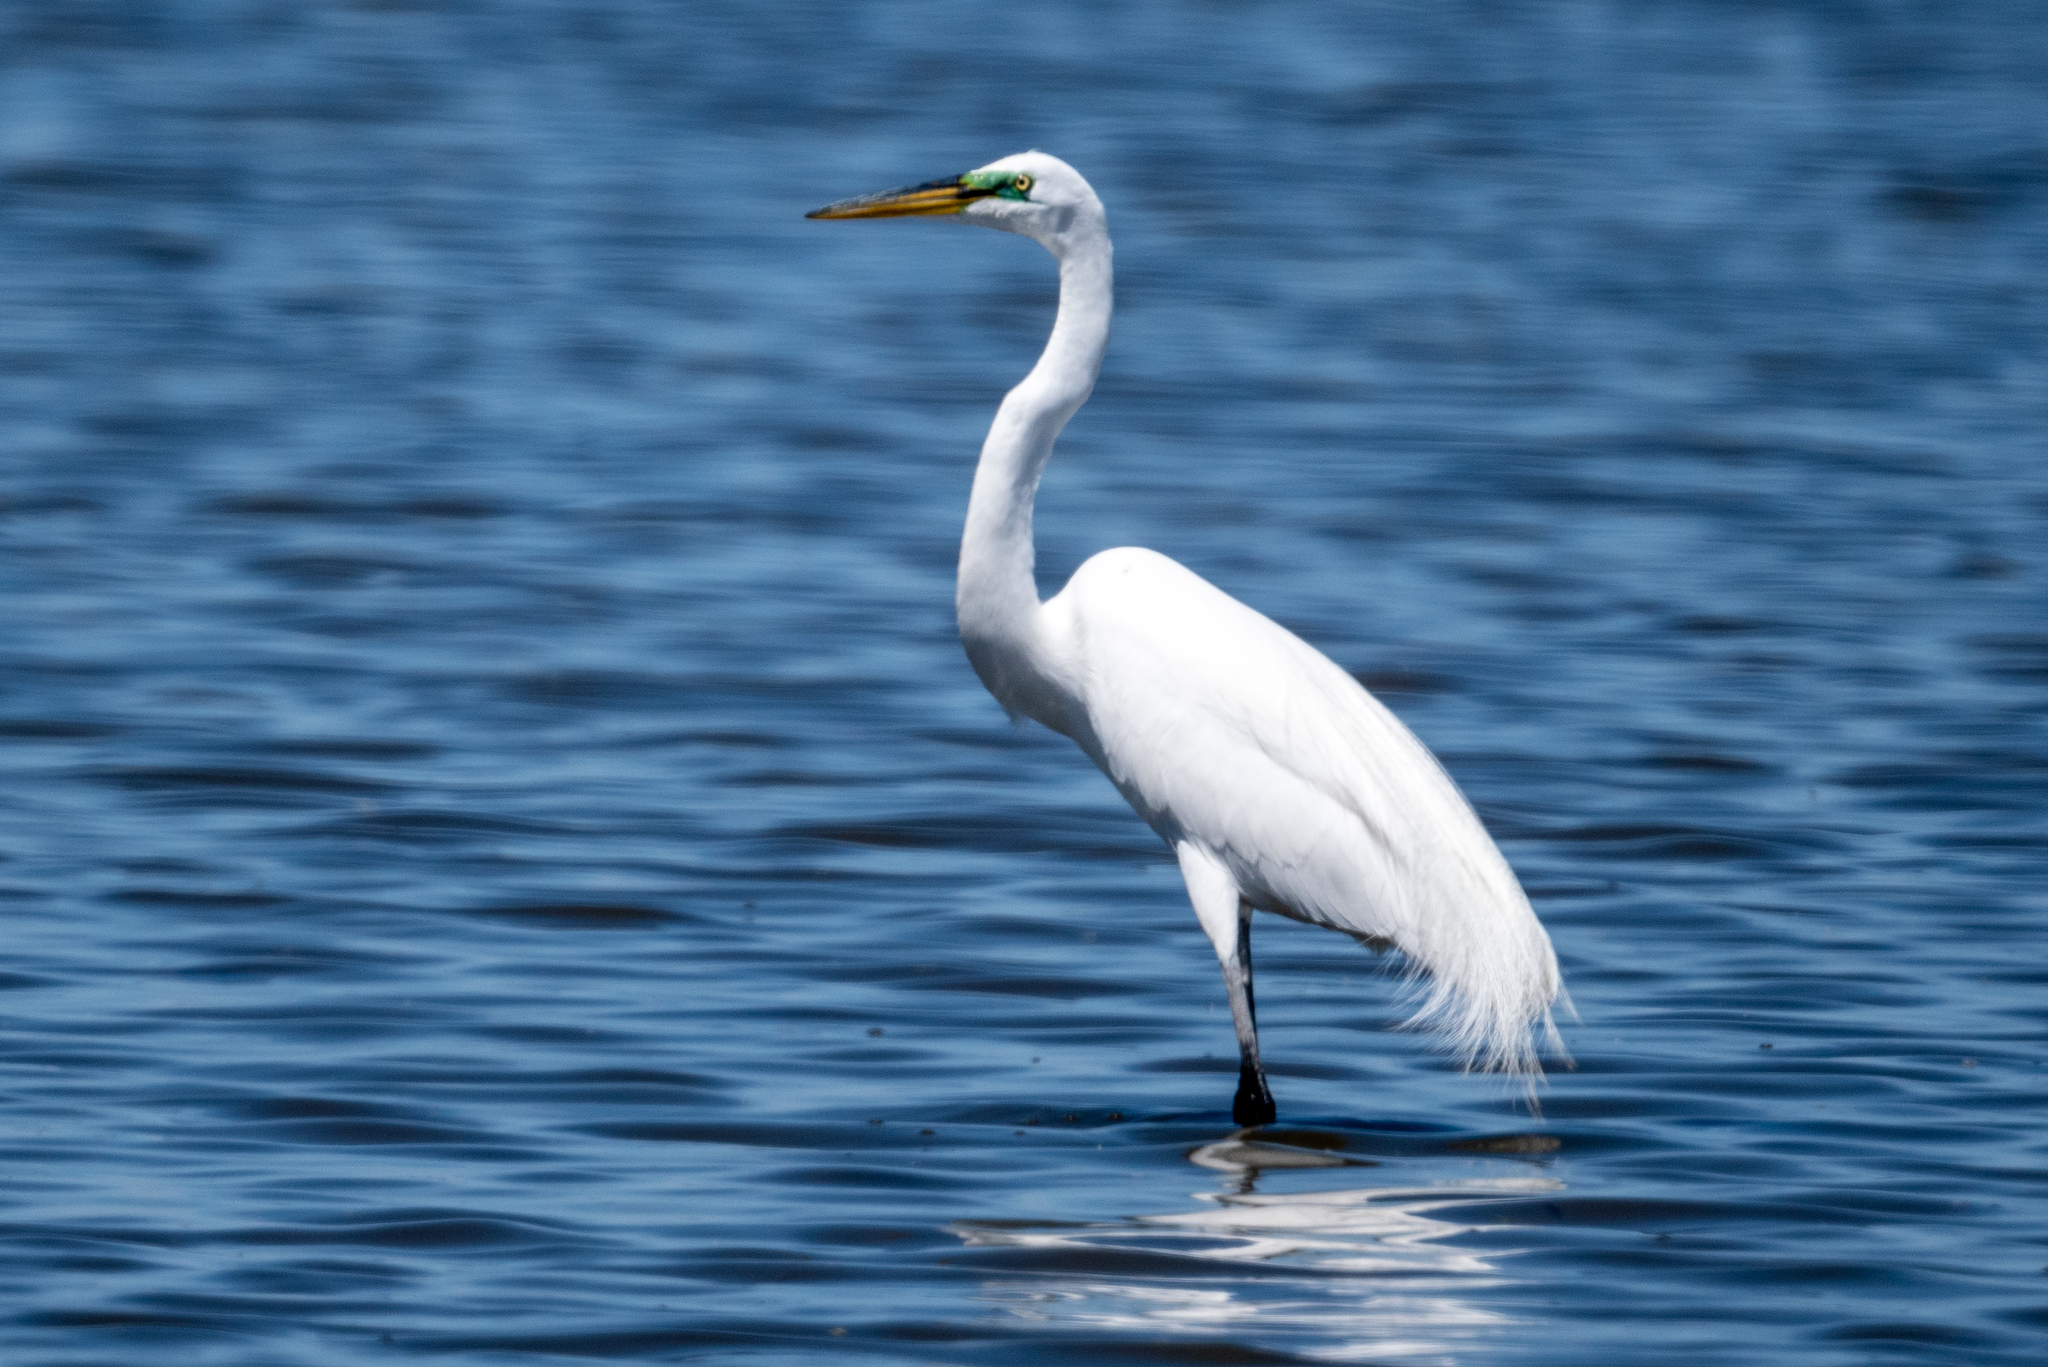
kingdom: Animalia
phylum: Chordata
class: Aves
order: Pelecaniformes
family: Ardeidae
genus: Ardea
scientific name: Ardea alba
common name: Great egret
